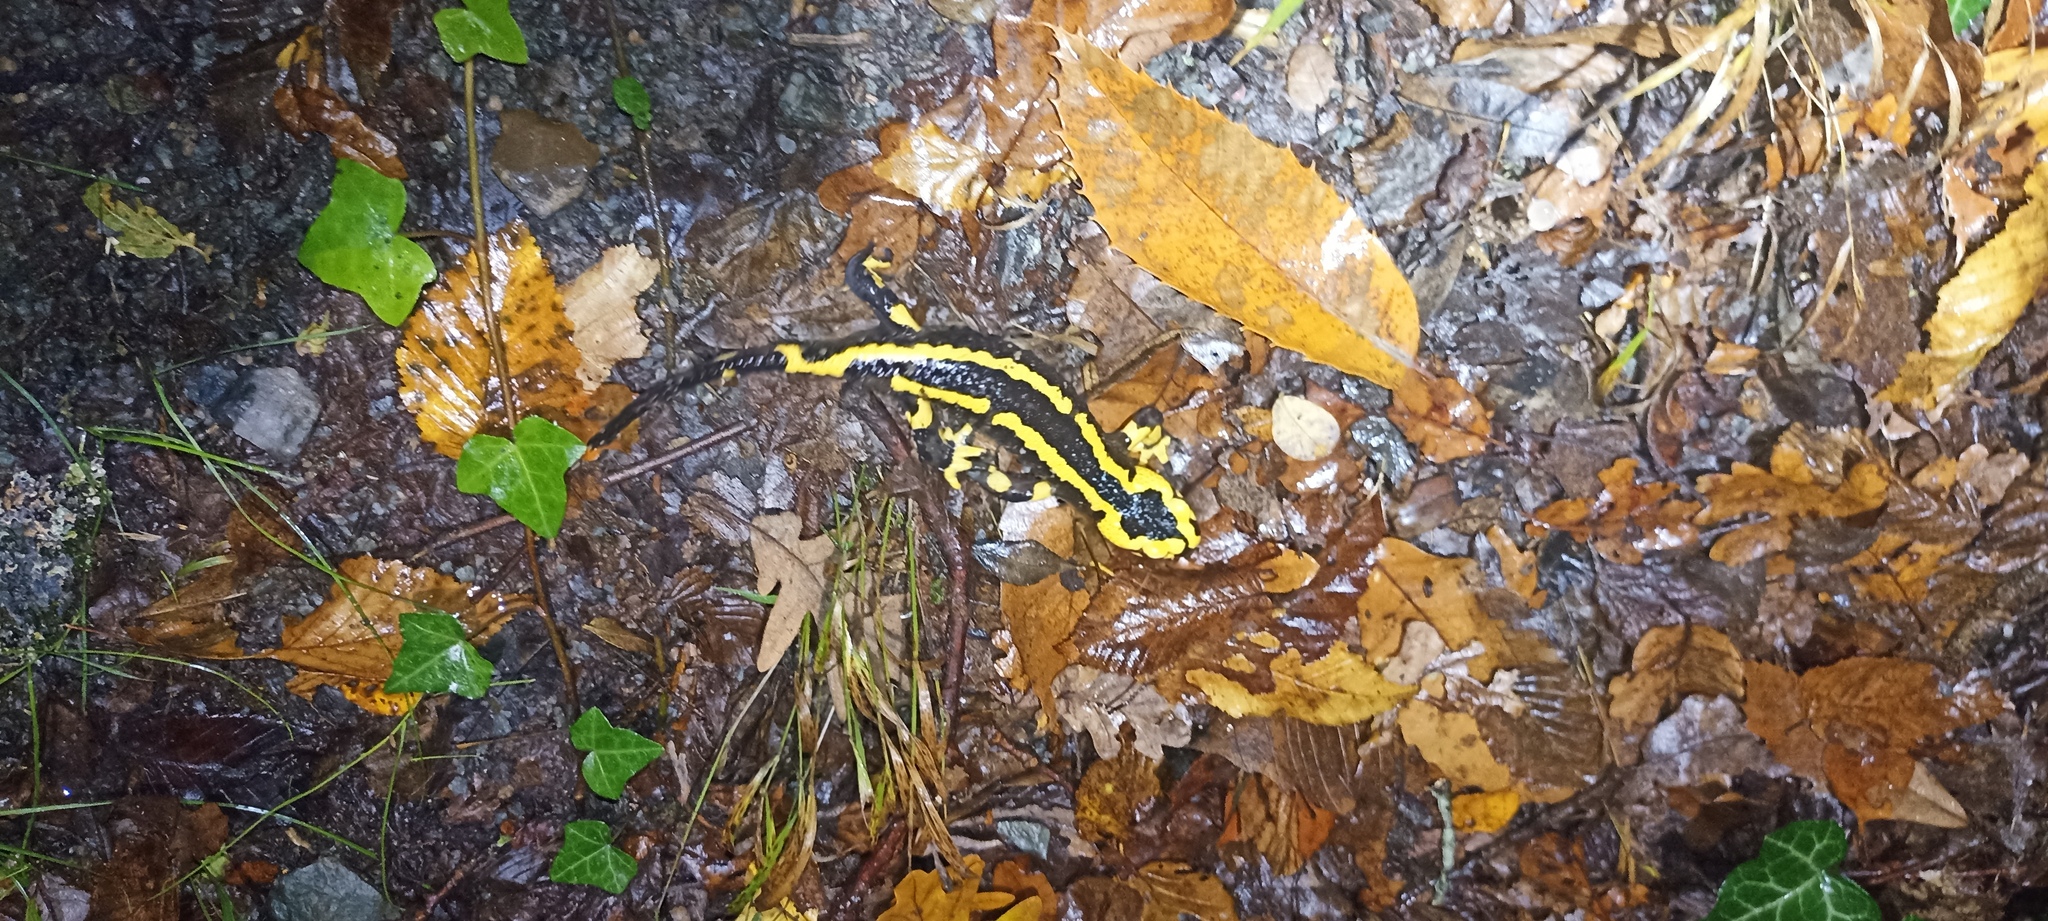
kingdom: Animalia
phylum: Chordata
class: Amphibia
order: Caudata
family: Salamandridae
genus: Salamandra
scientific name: Salamandra salamandra
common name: Fire salamander
